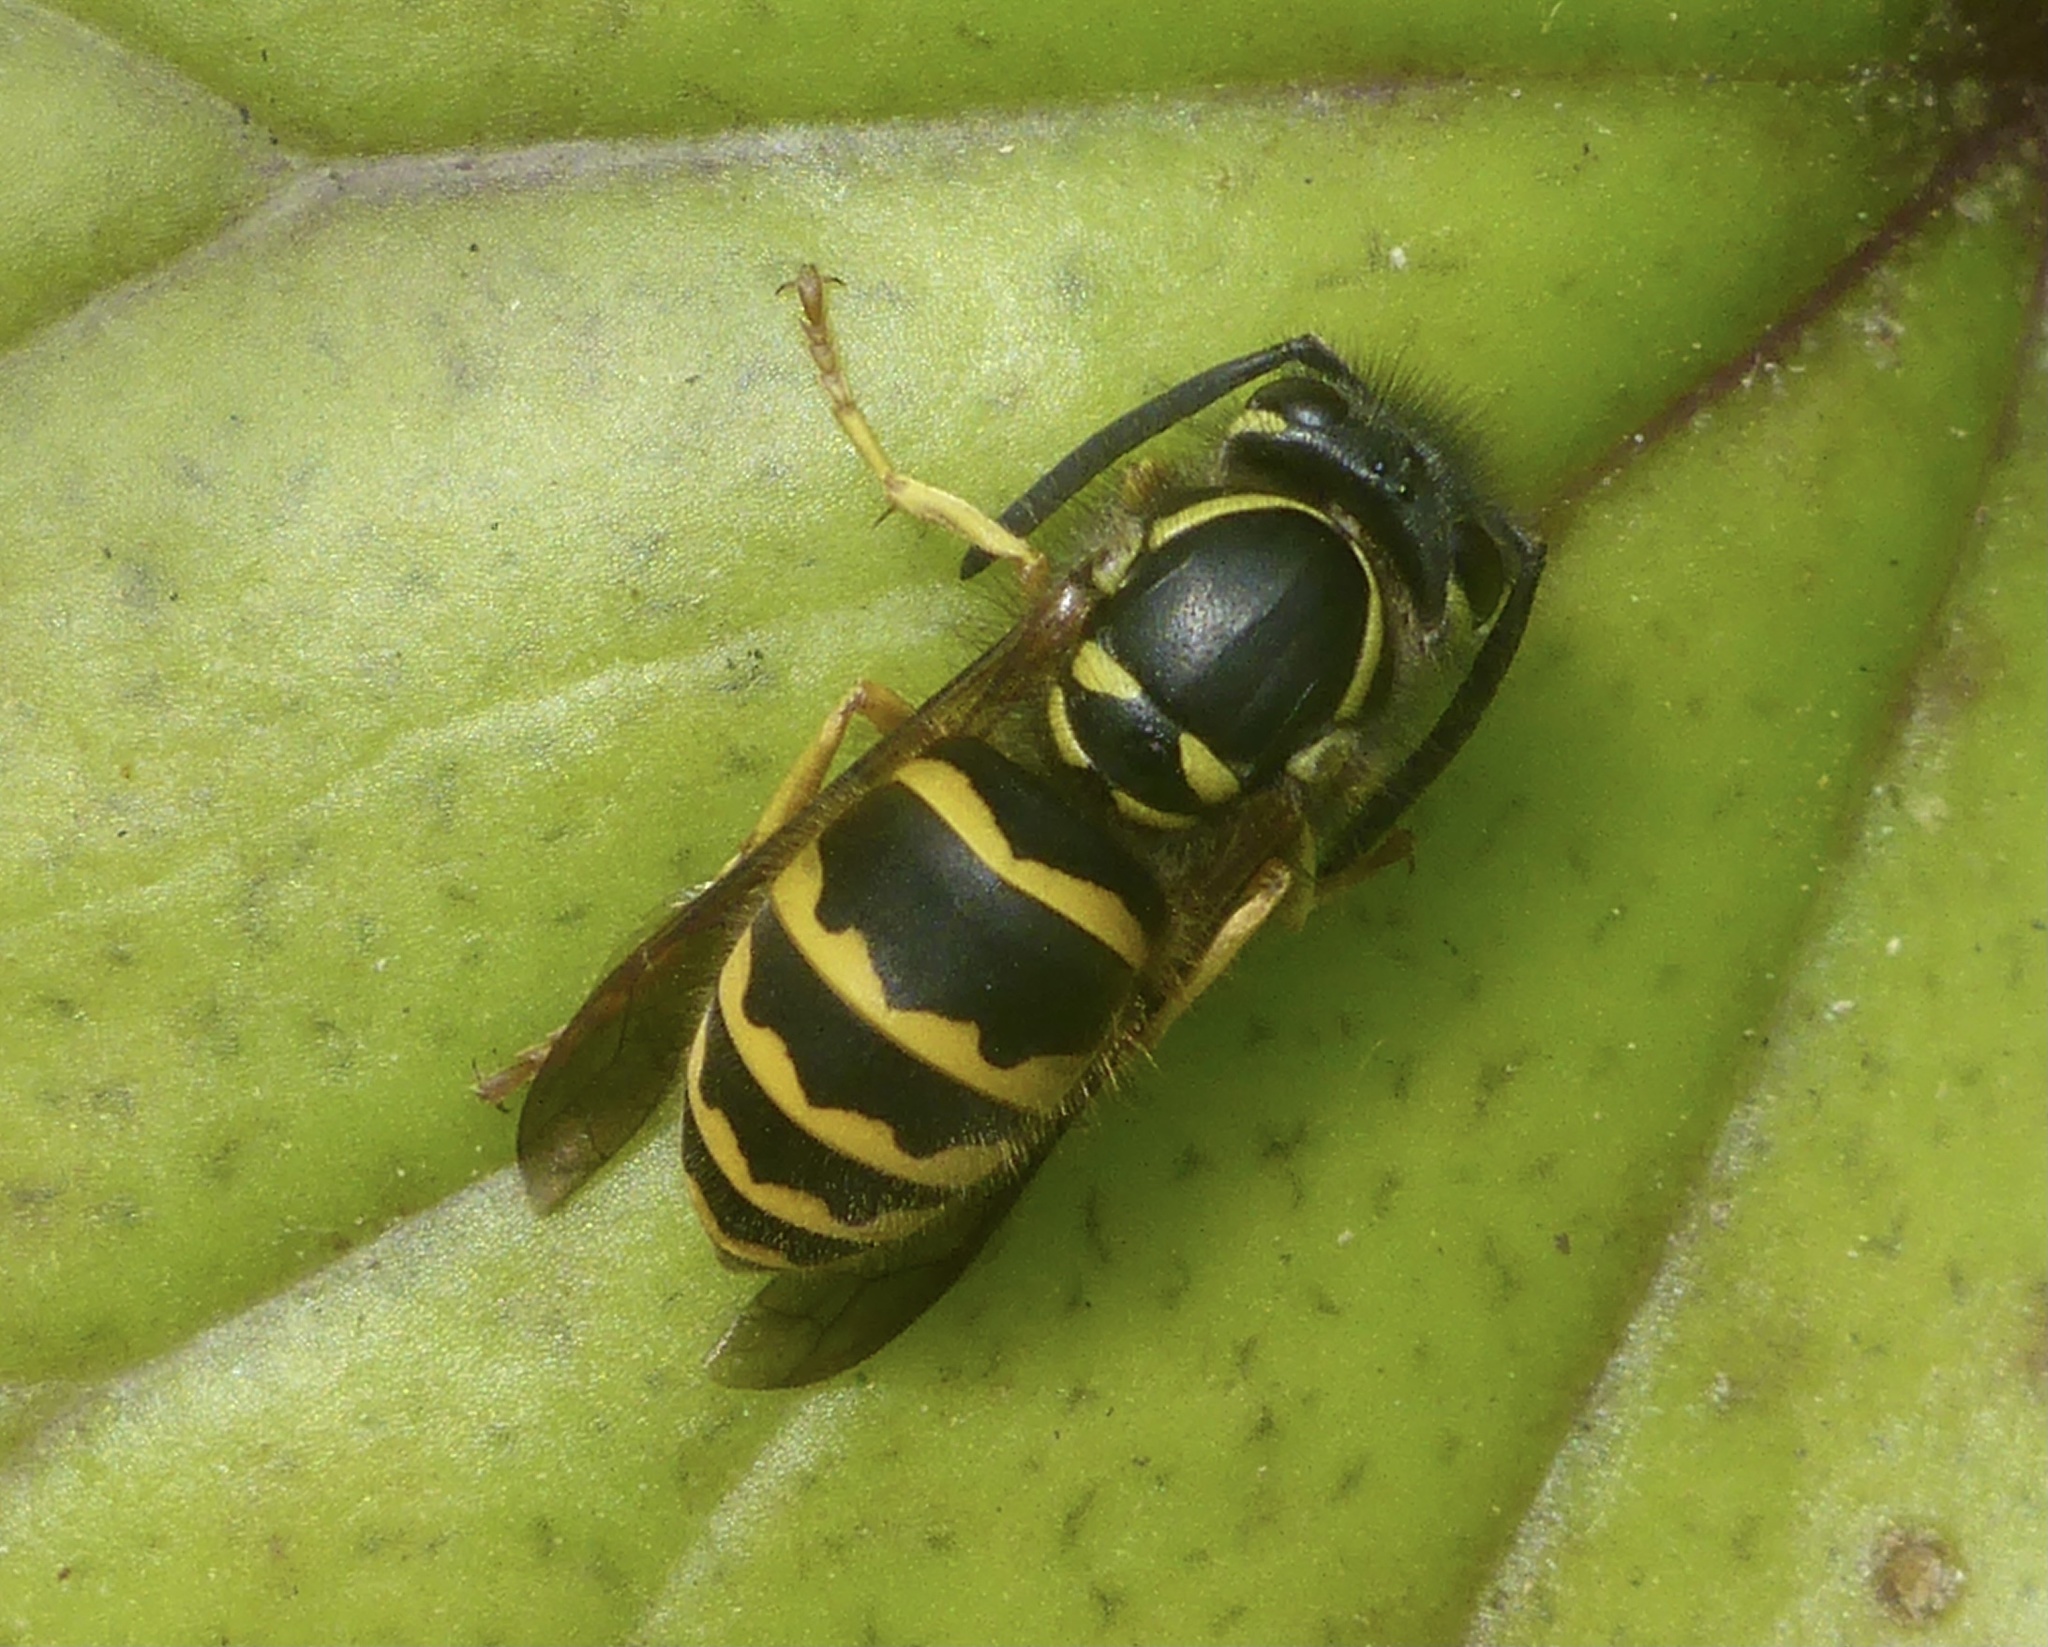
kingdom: Animalia
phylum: Arthropoda
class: Insecta
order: Hymenoptera
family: Vespidae
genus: Vespula
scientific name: Vespula alascensis
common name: Alaska yellowjacket
